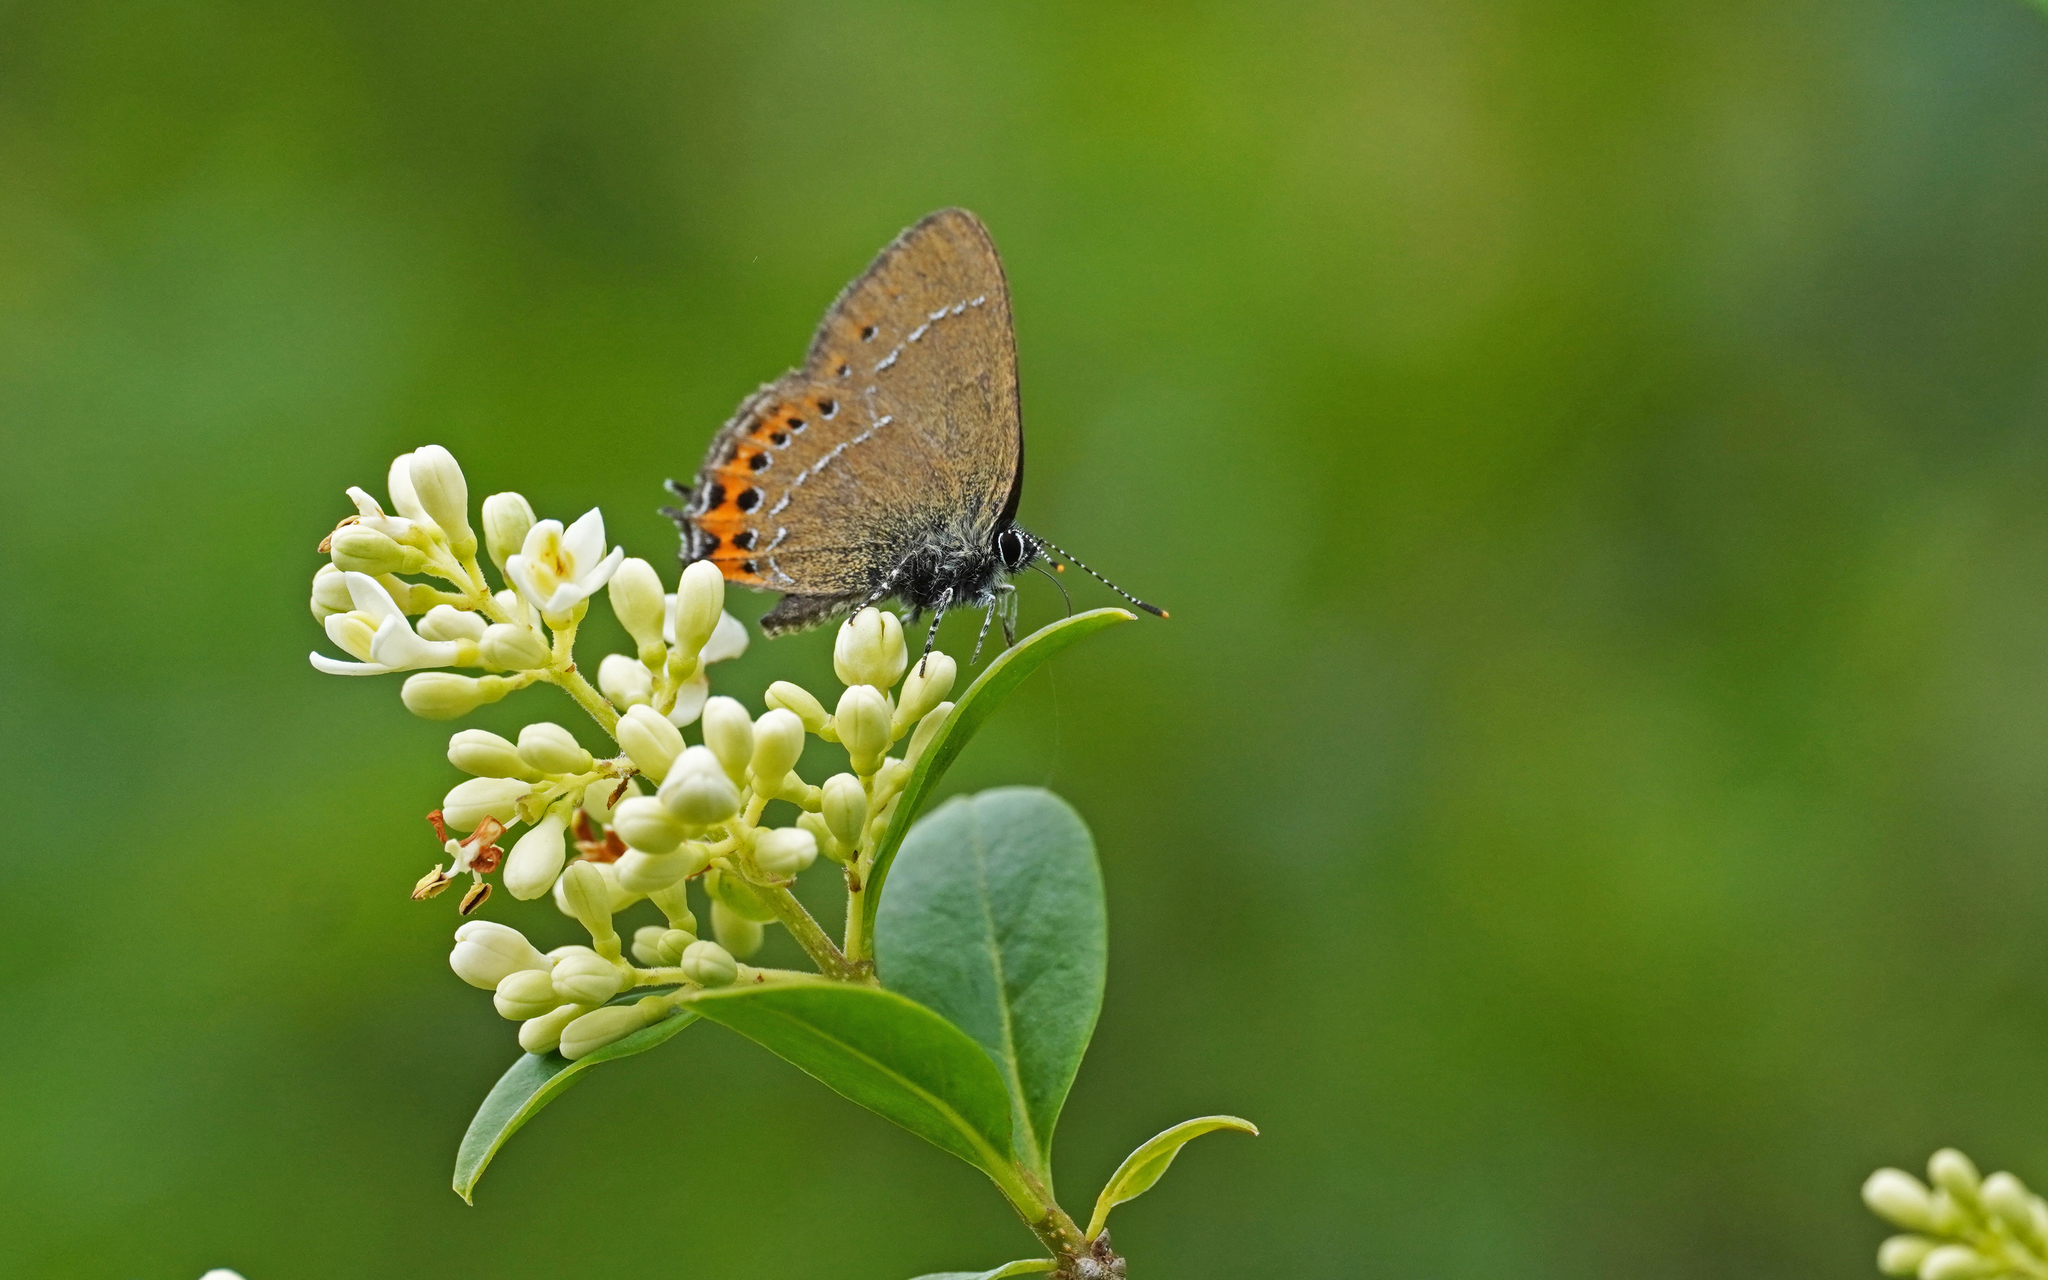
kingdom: Animalia
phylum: Arthropoda
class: Insecta
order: Lepidoptera
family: Lycaenidae
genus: Fixsenia
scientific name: Fixsenia pruni
